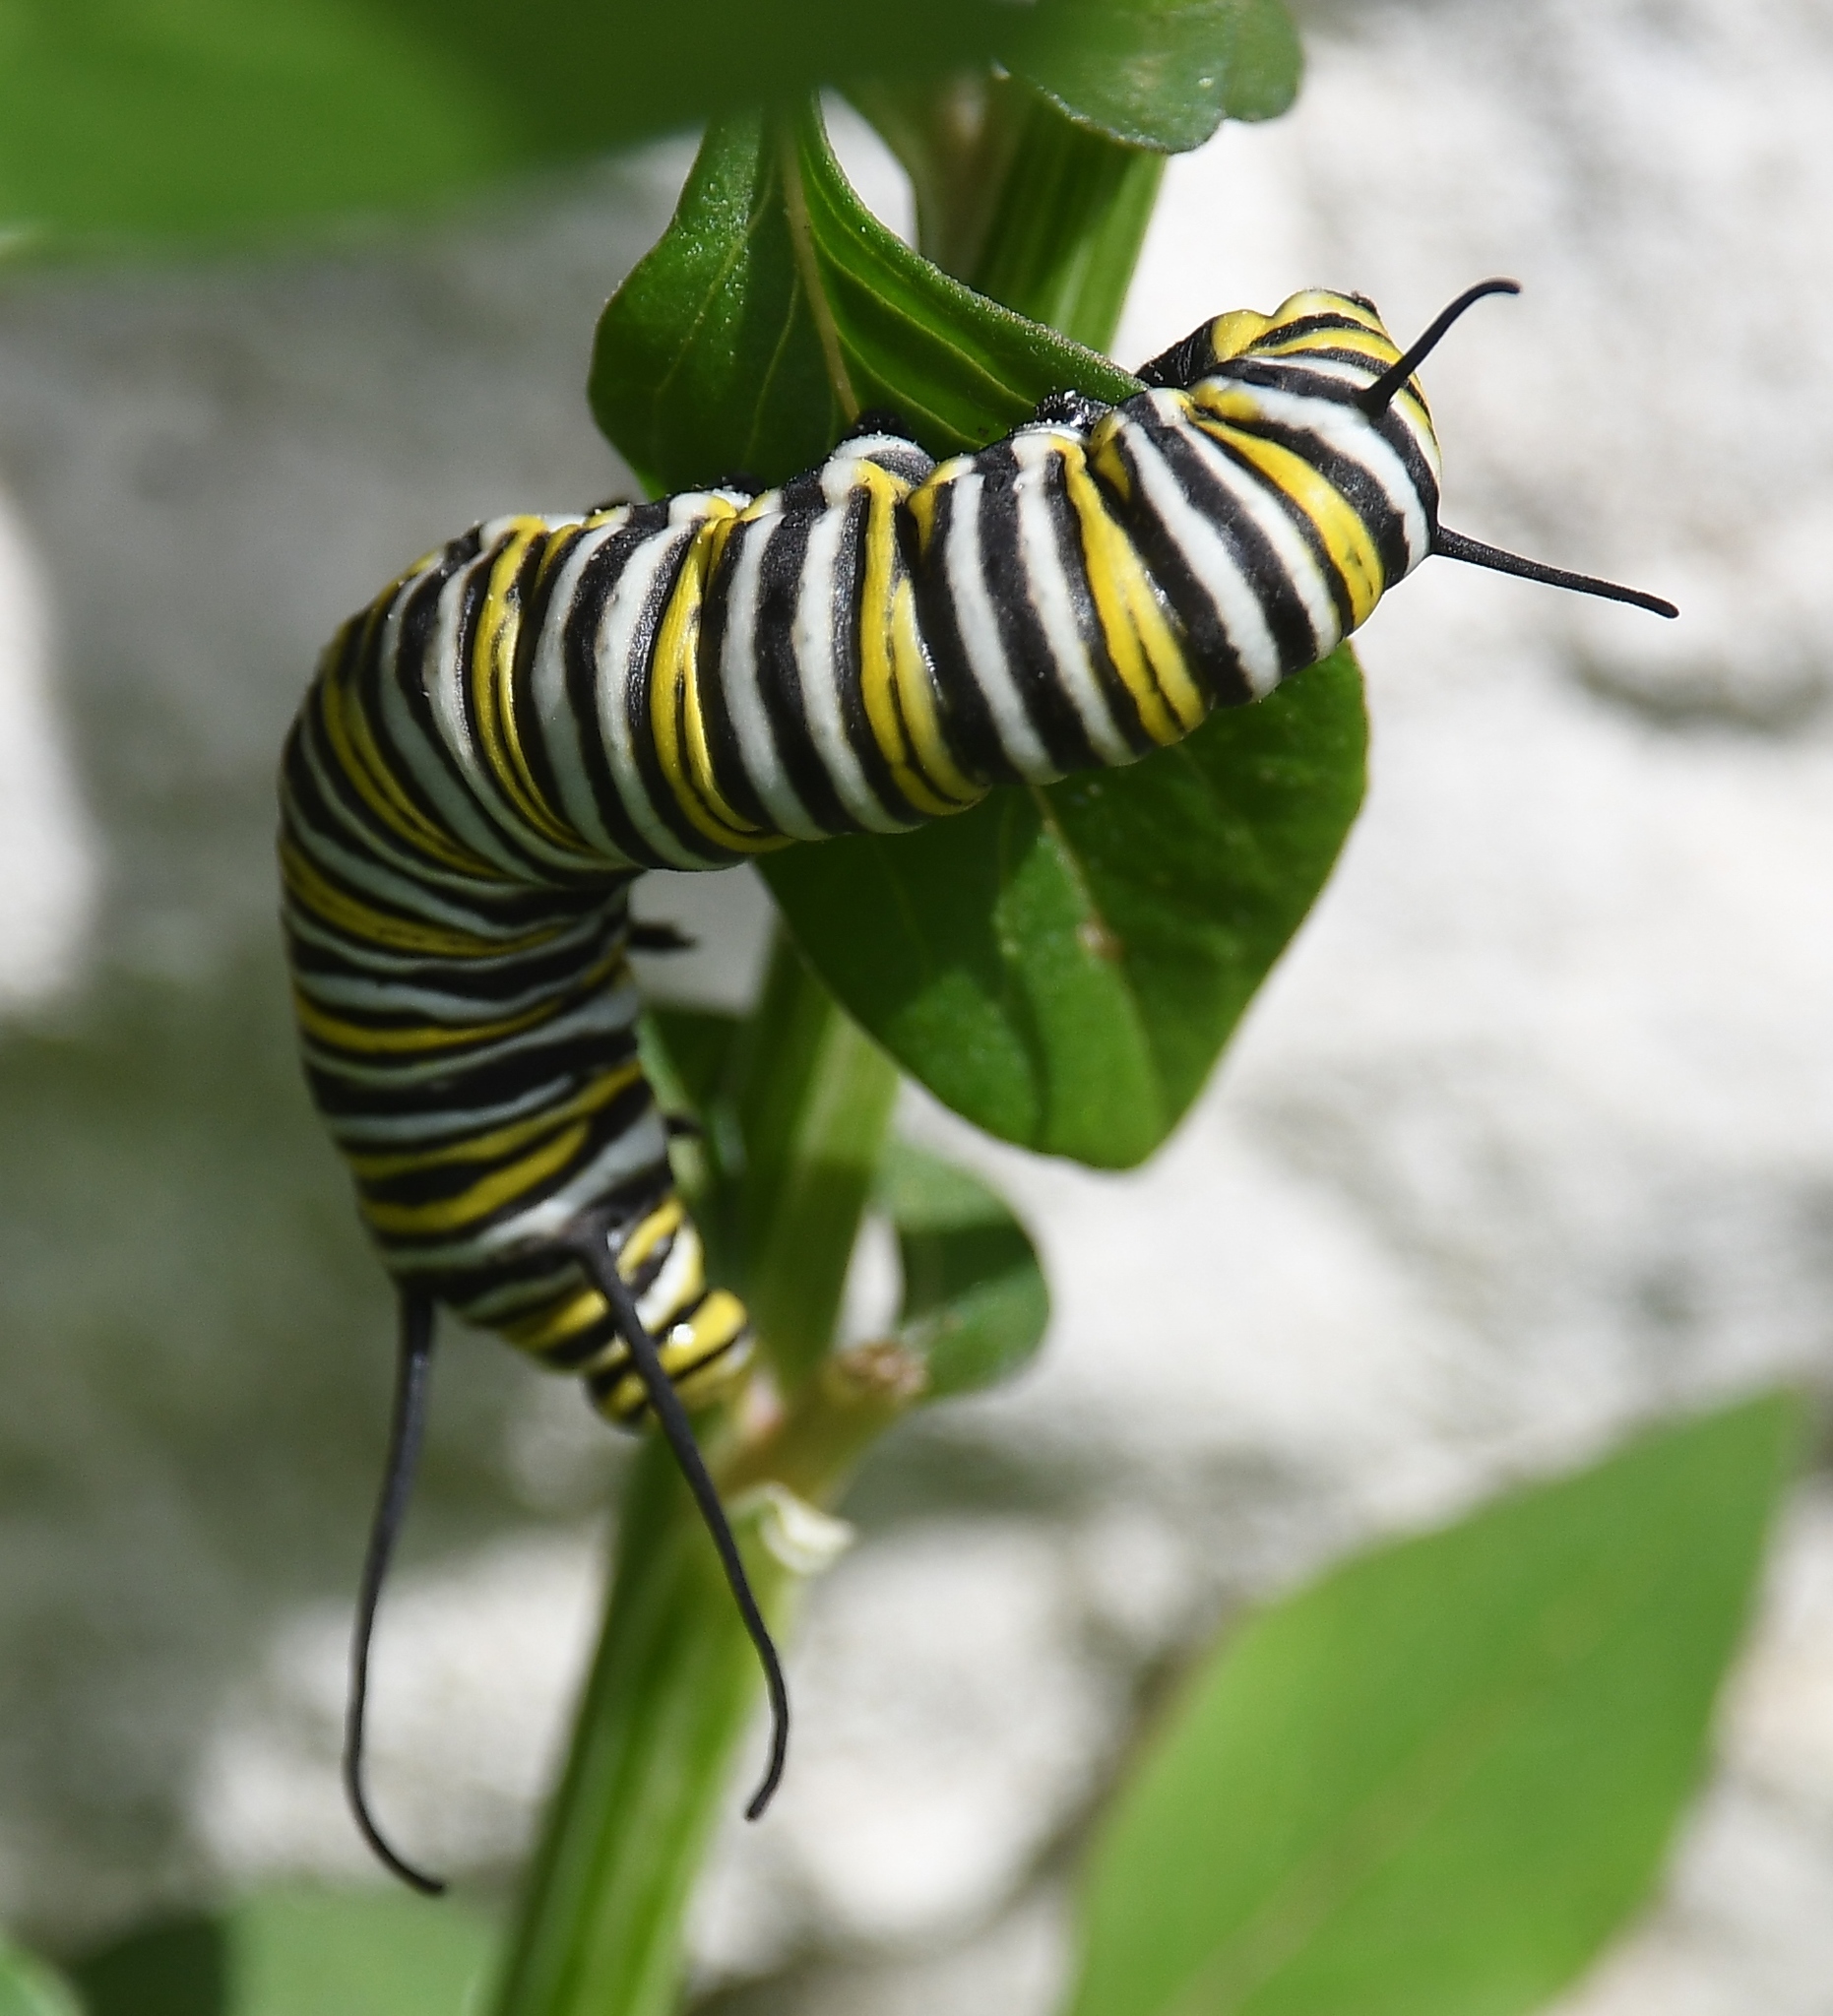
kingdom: Animalia
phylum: Arthropoda
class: Insecta
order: Lepidoptera
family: Nymphalidae
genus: Danaus
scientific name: Danaus plexippus
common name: Monarch
